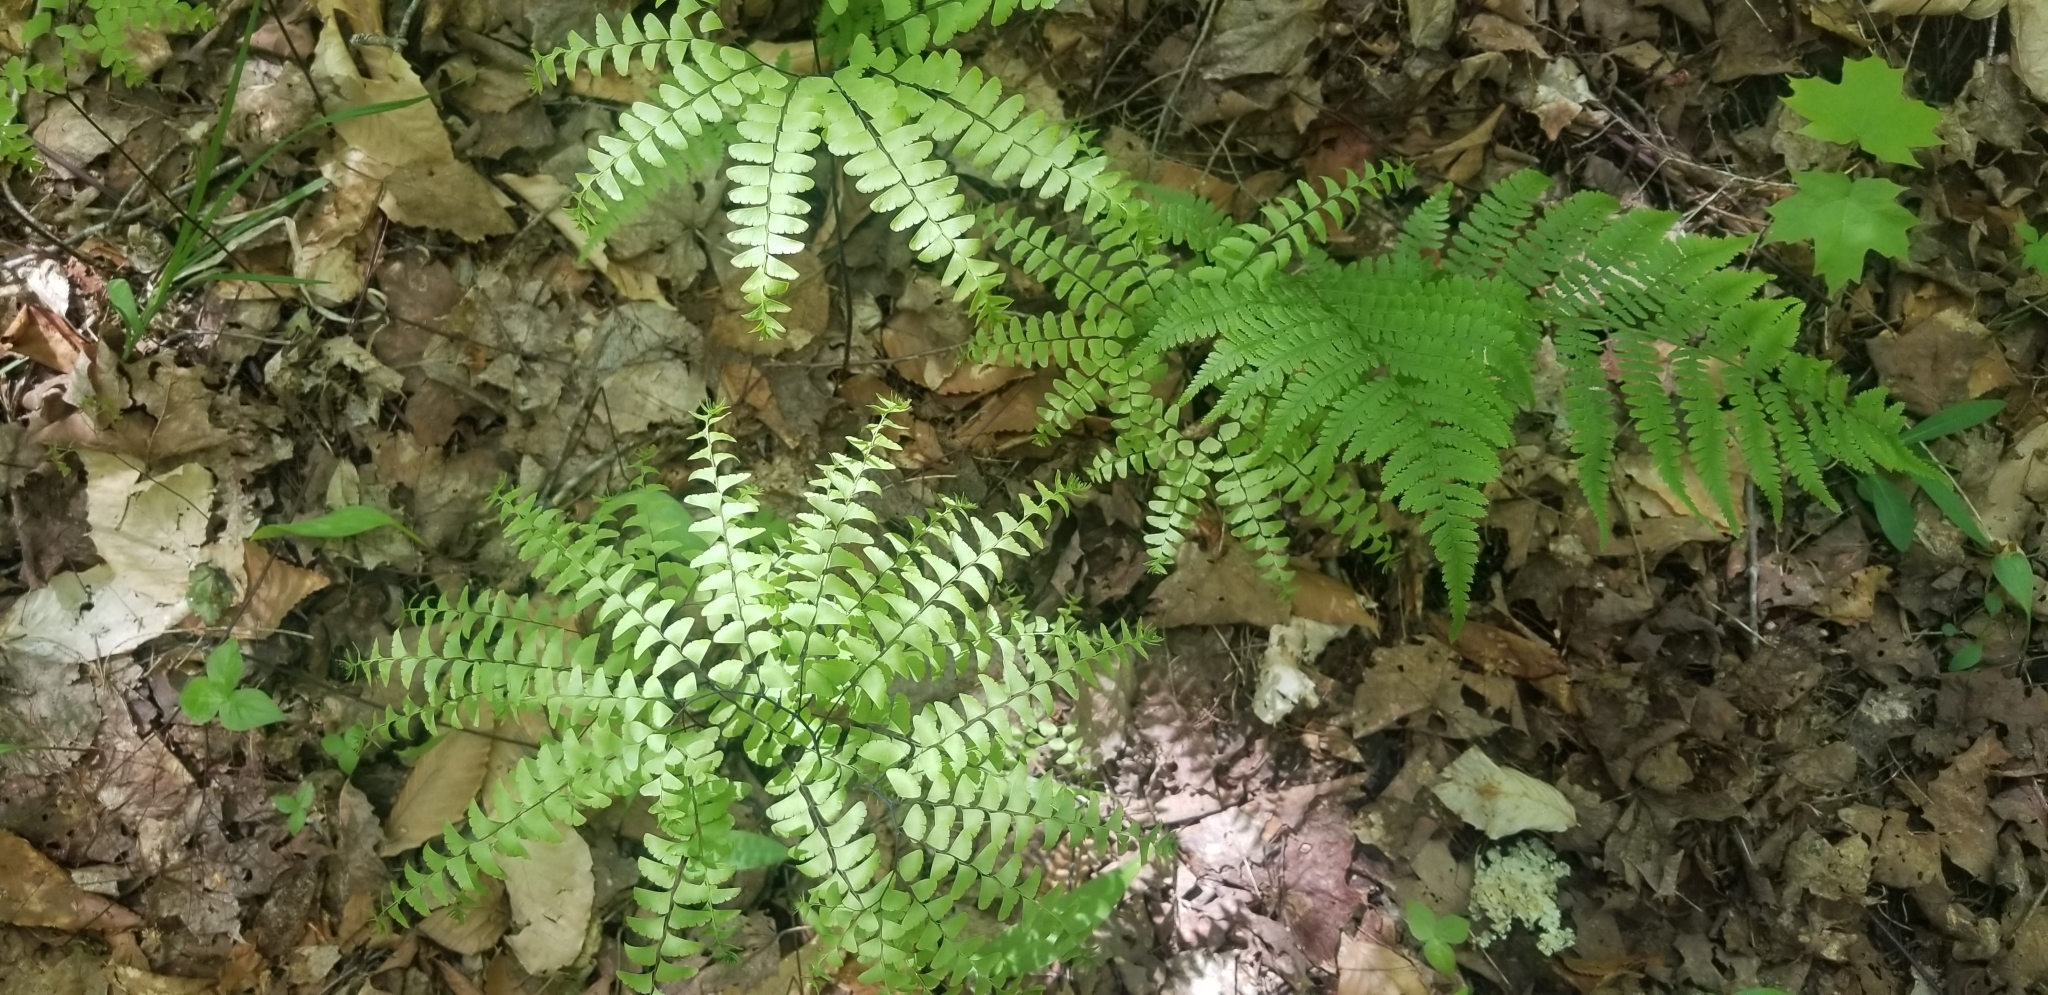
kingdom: Plantae
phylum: Tracheophyta
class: Polypodiopsida
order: Polypodiales
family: Pteridaceae
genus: Adiantum
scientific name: Adiantum pedatum
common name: Five-finger fern
